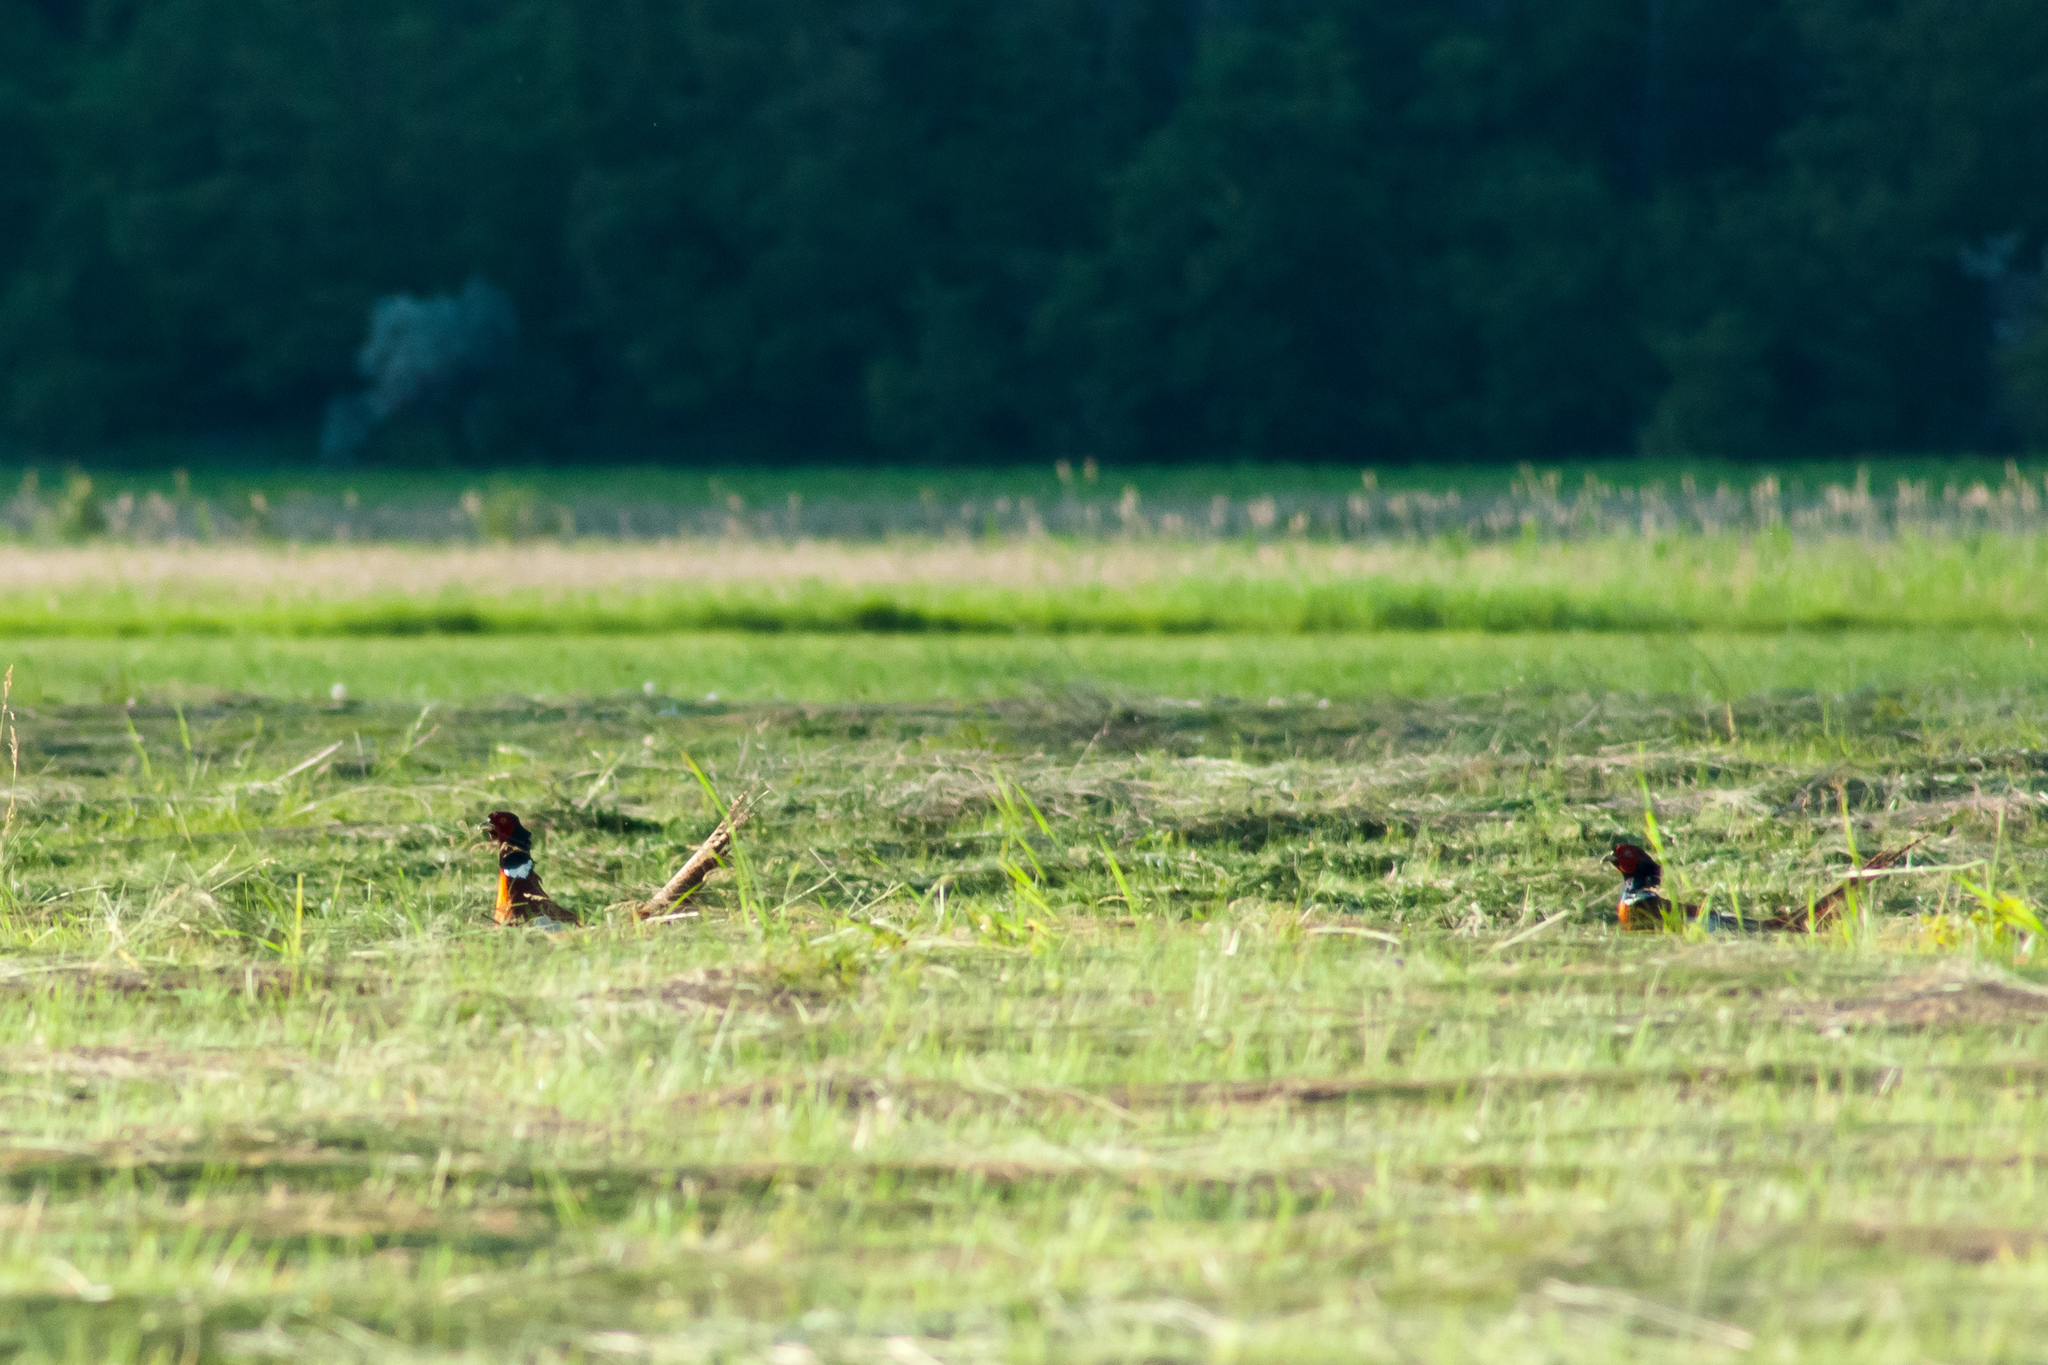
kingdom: Animalia
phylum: Chordata
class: Aves
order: Galliformes
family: Phasianidae
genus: Phasianus
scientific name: Phasianus colchicus
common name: Common pheasant
